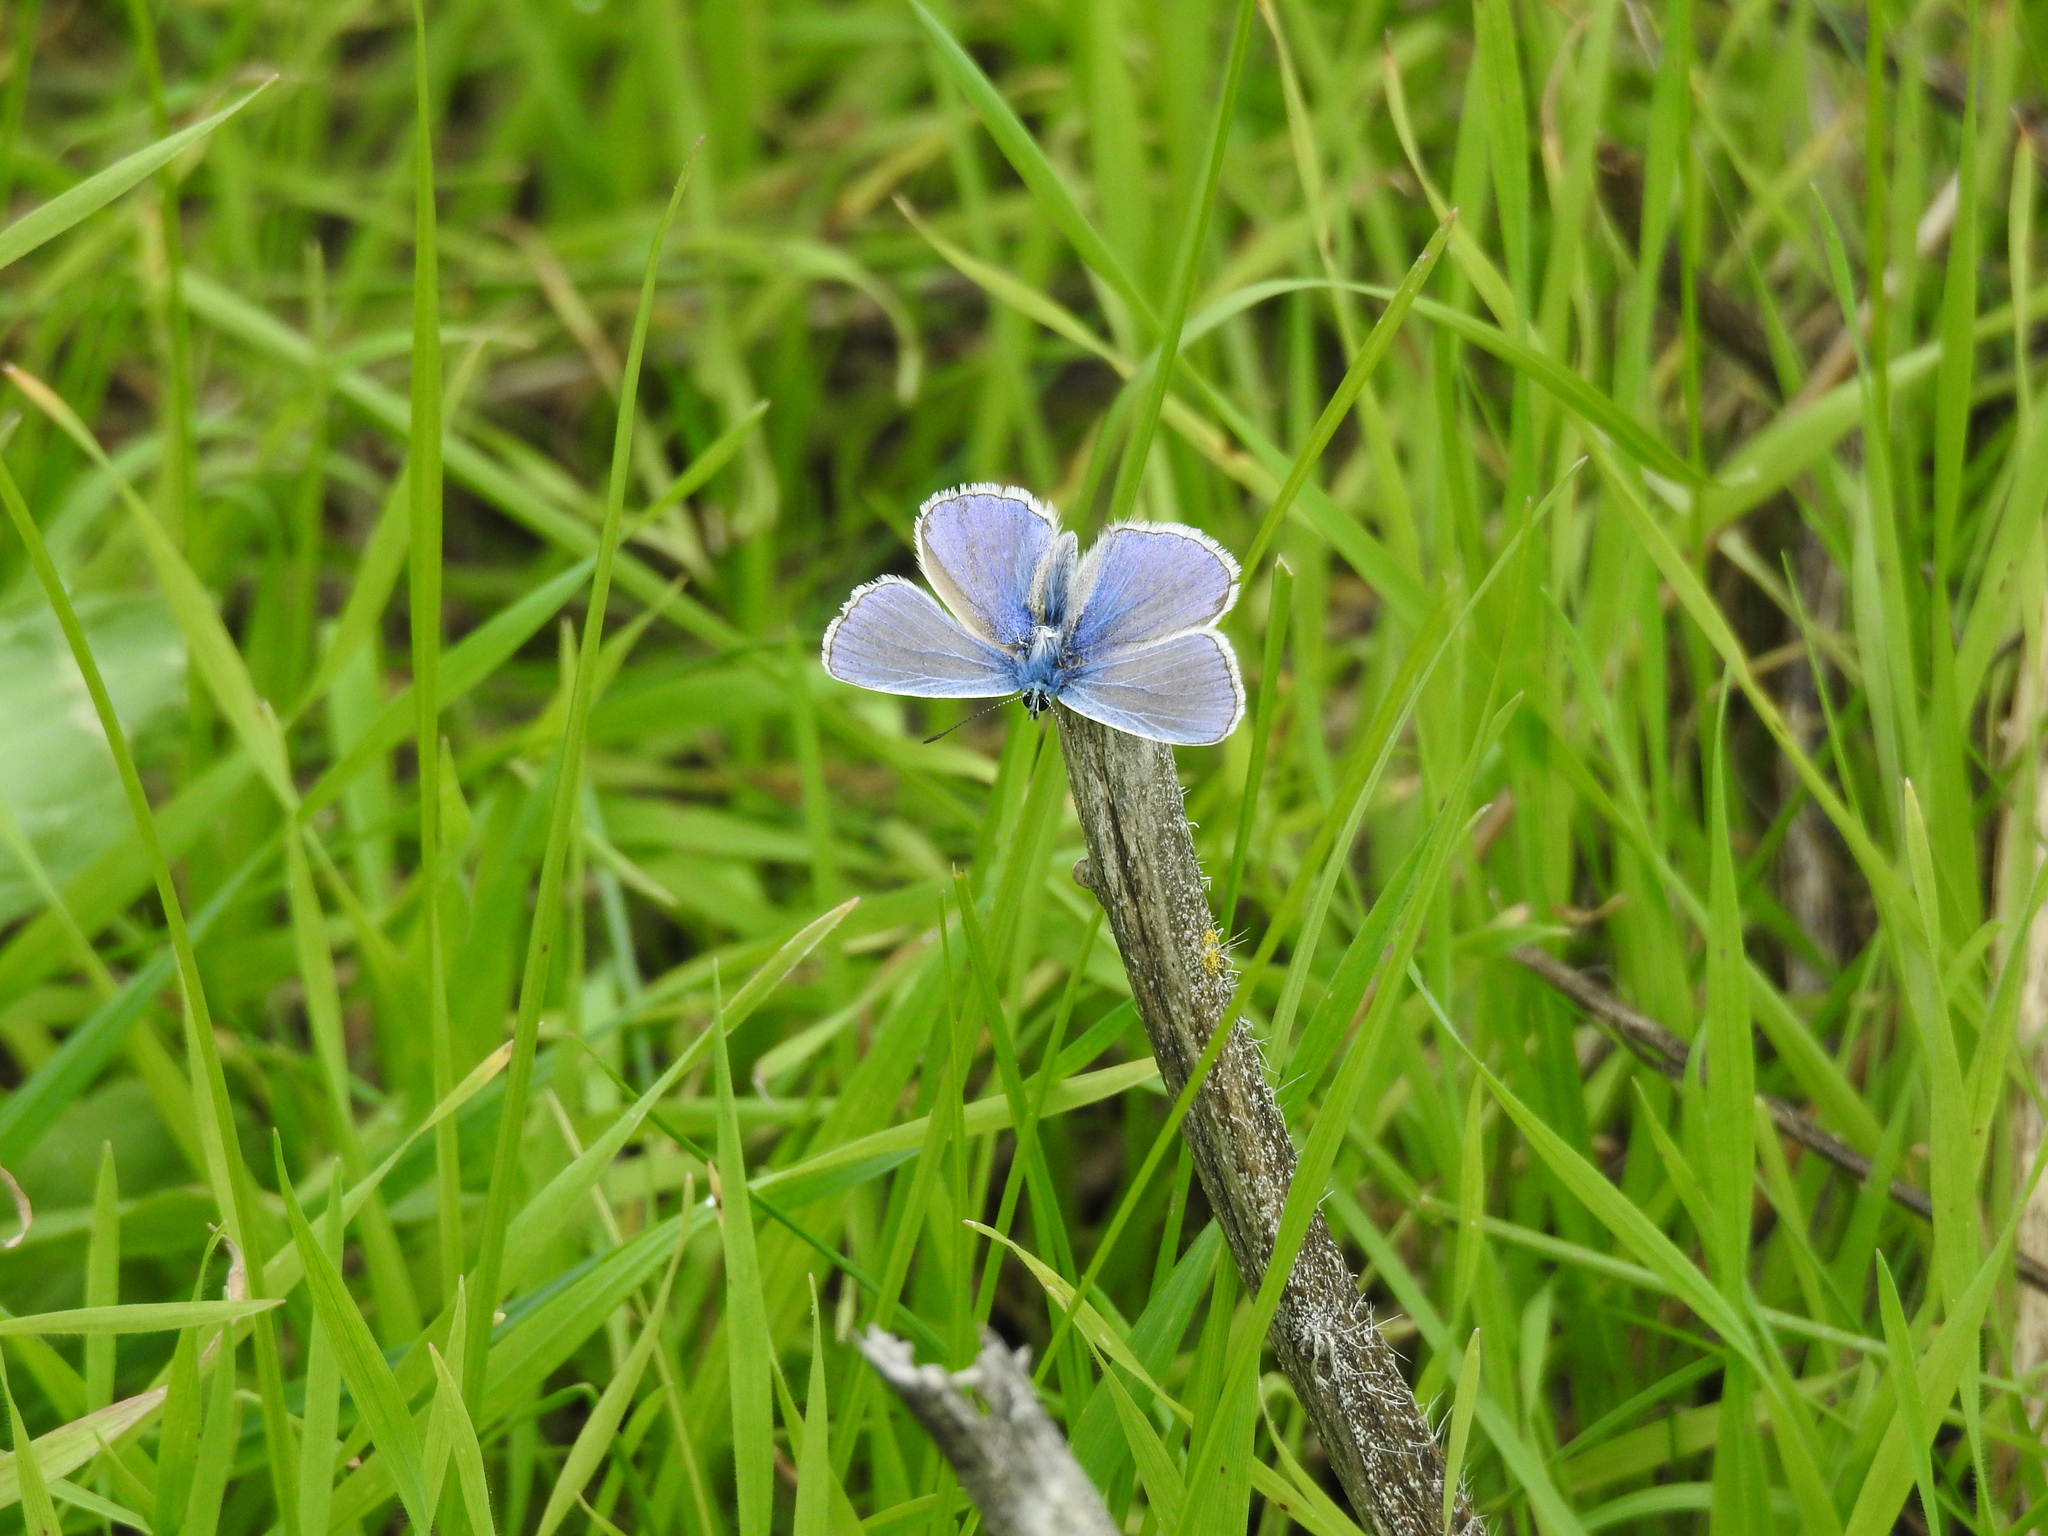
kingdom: Animalia
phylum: Arthropoda
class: Insecta
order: Lepidoptera
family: Lycaenidae
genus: Polyommatus
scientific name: Polyommatus icarus
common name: Common blue
